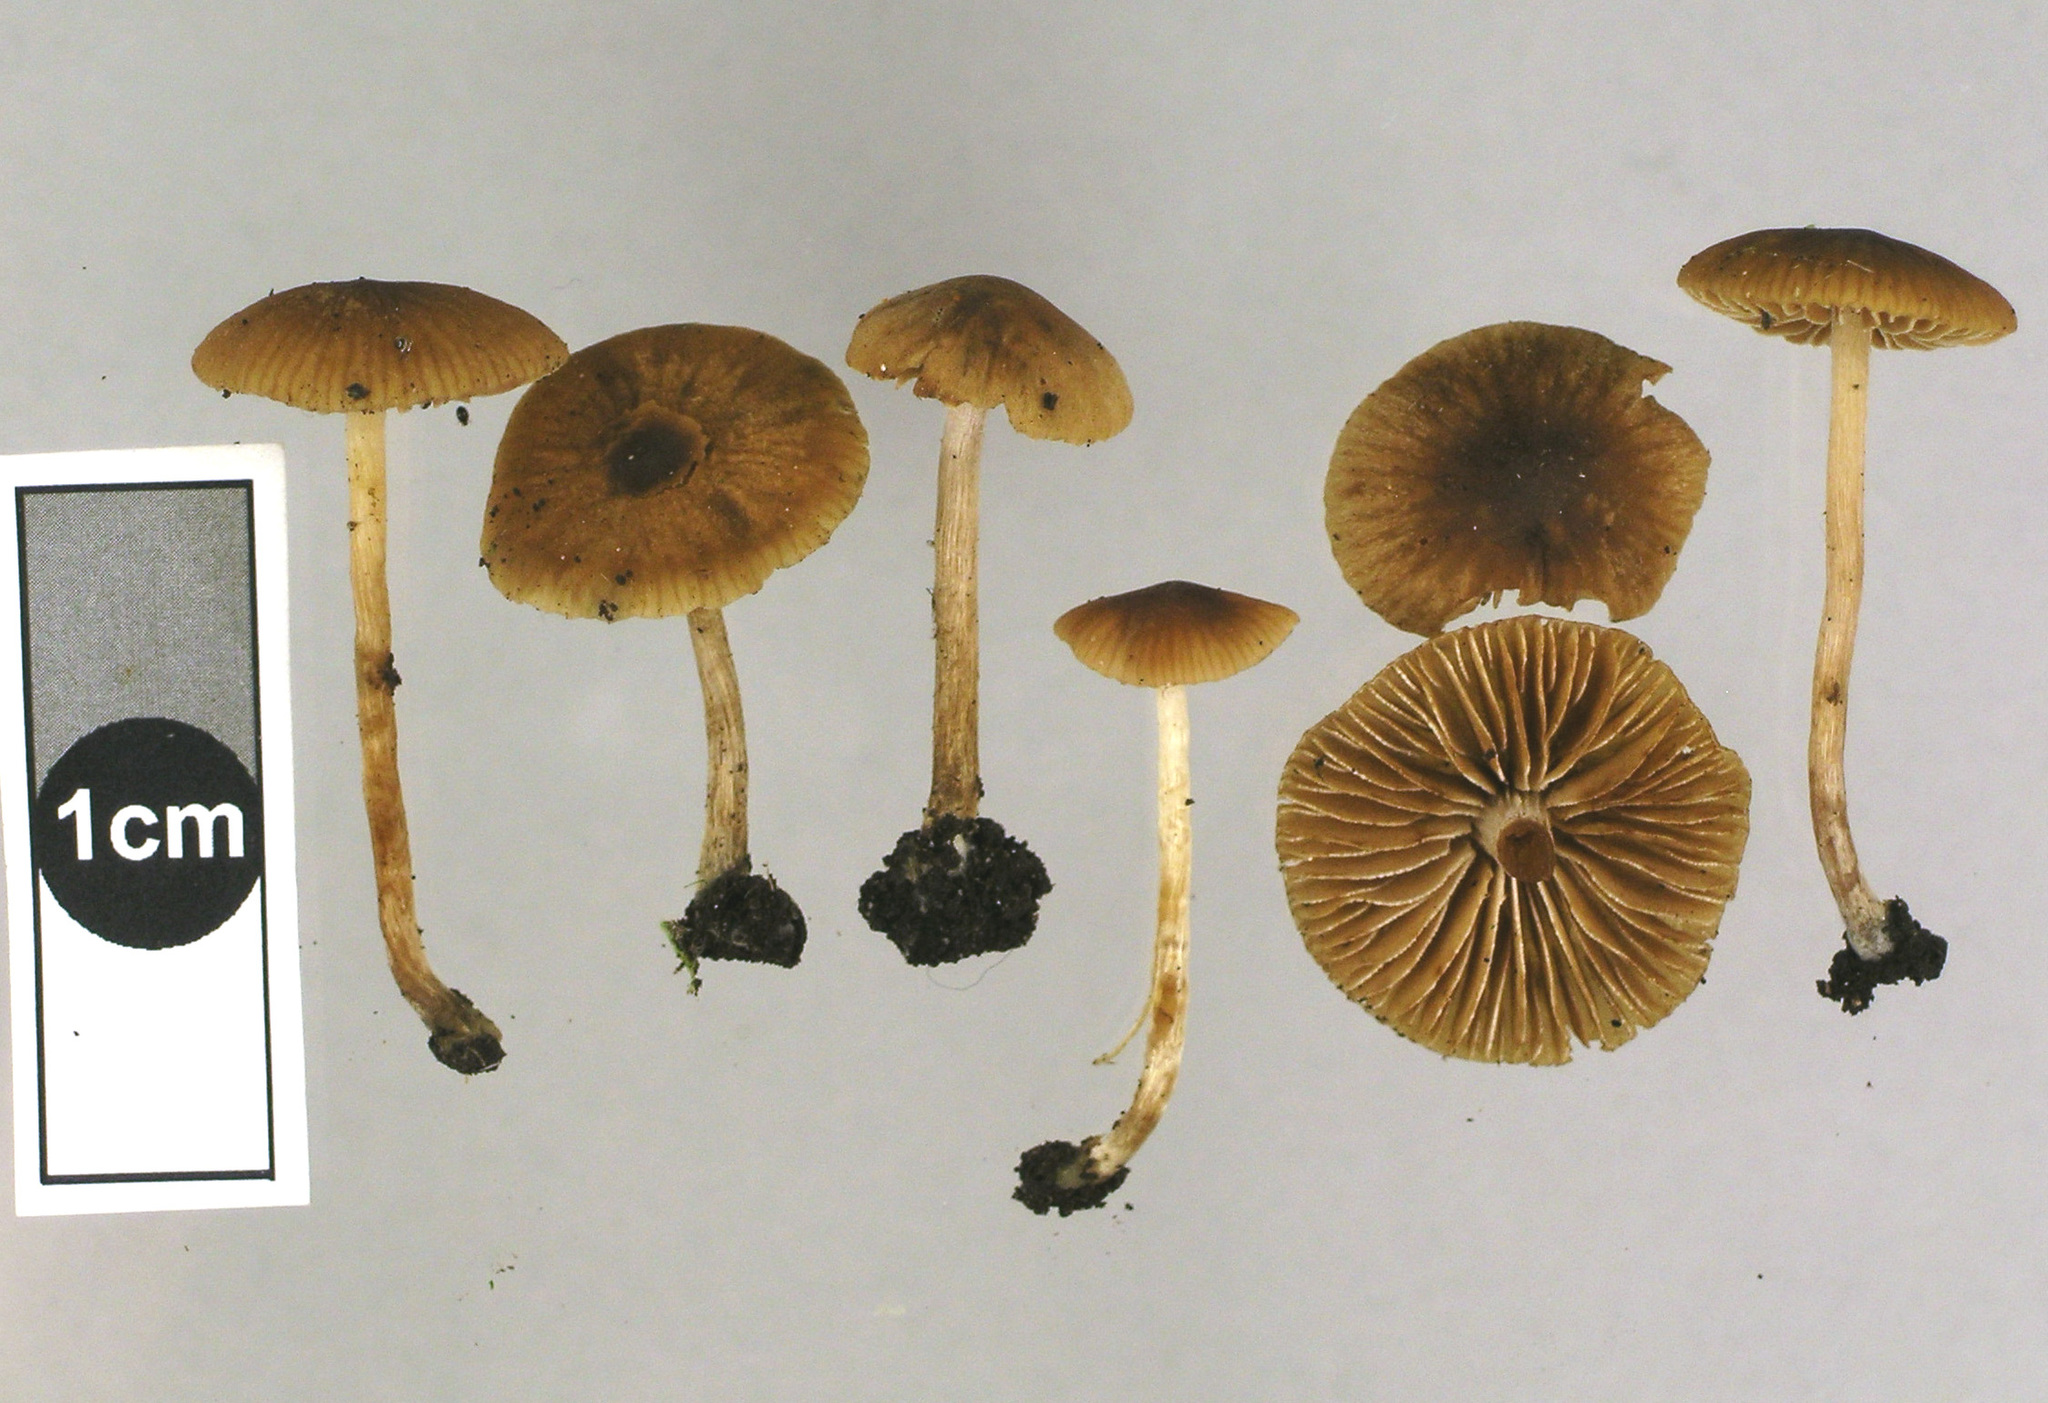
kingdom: Fungi
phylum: Basidiomycota
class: Agaricomycetes
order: Agaricales
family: Hymenogastraceae
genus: Naucoria
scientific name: Naucoria salicis
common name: Willow aldercap
